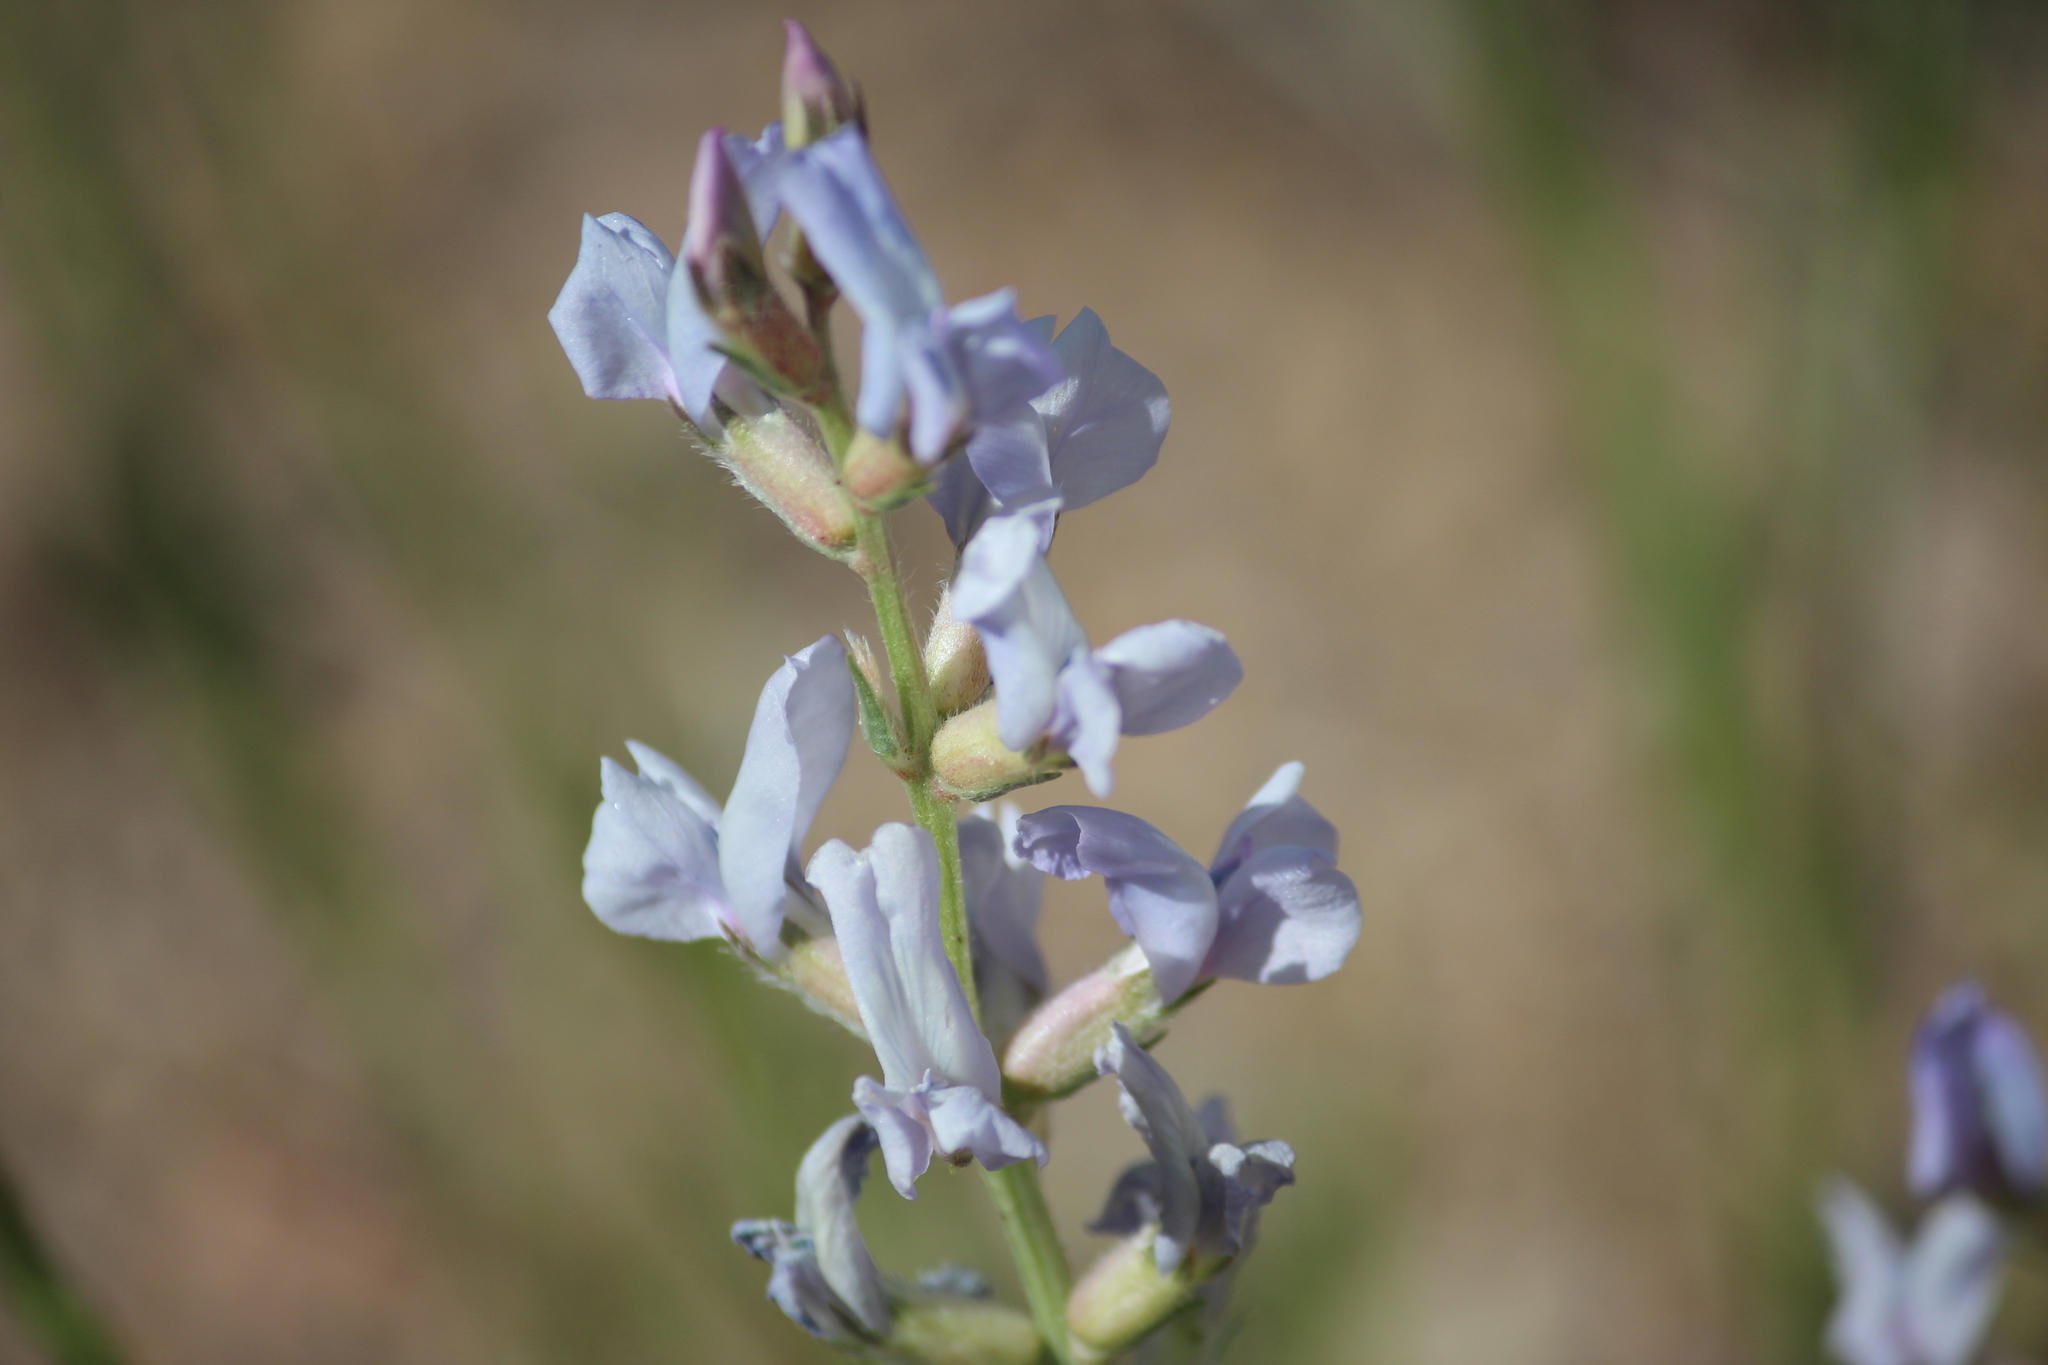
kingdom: Plantae
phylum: Tracheophyta
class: Magnoliopsida
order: Fabales
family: Fabaceae
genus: Oxytropis
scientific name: Oxytropis sericea
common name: Silky locoweed
